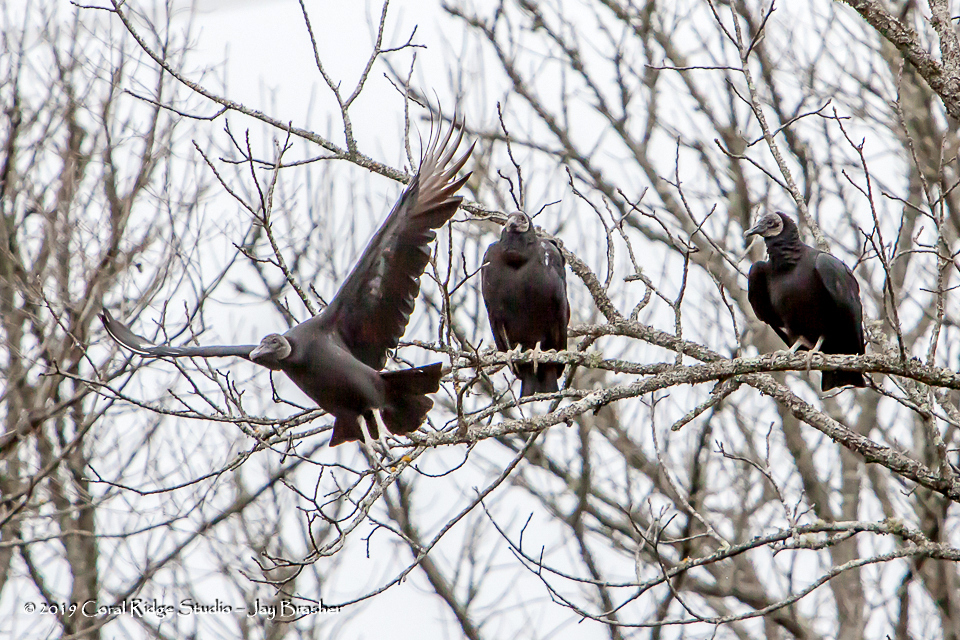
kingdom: Animalia
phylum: Chordata
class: Aves
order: Accipitriformes
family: Cathartidae
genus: Coragyps
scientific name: Coragyps atratus
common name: Black vulture
